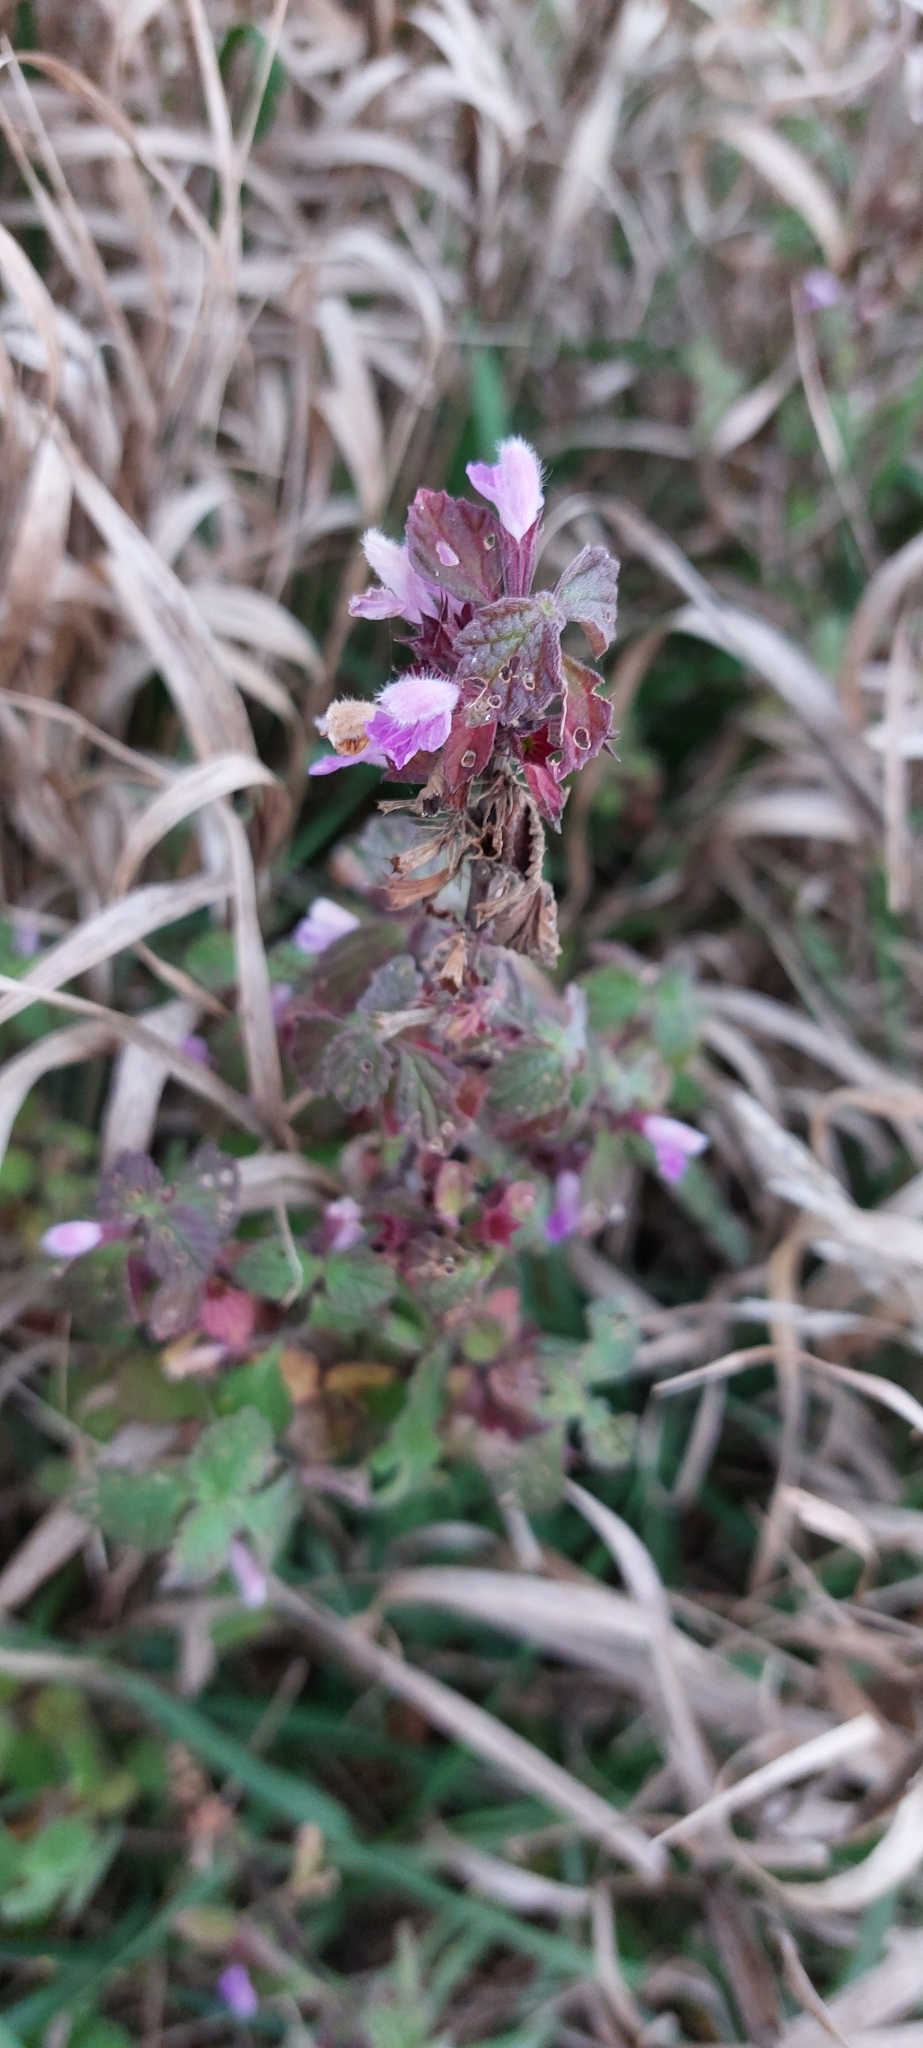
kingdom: Plantae
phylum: Tracheophyta
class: Magnoliopsida
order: Lamiales
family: Lamiaceae
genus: Ballota
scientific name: Ballota nigra
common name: Black horehound
